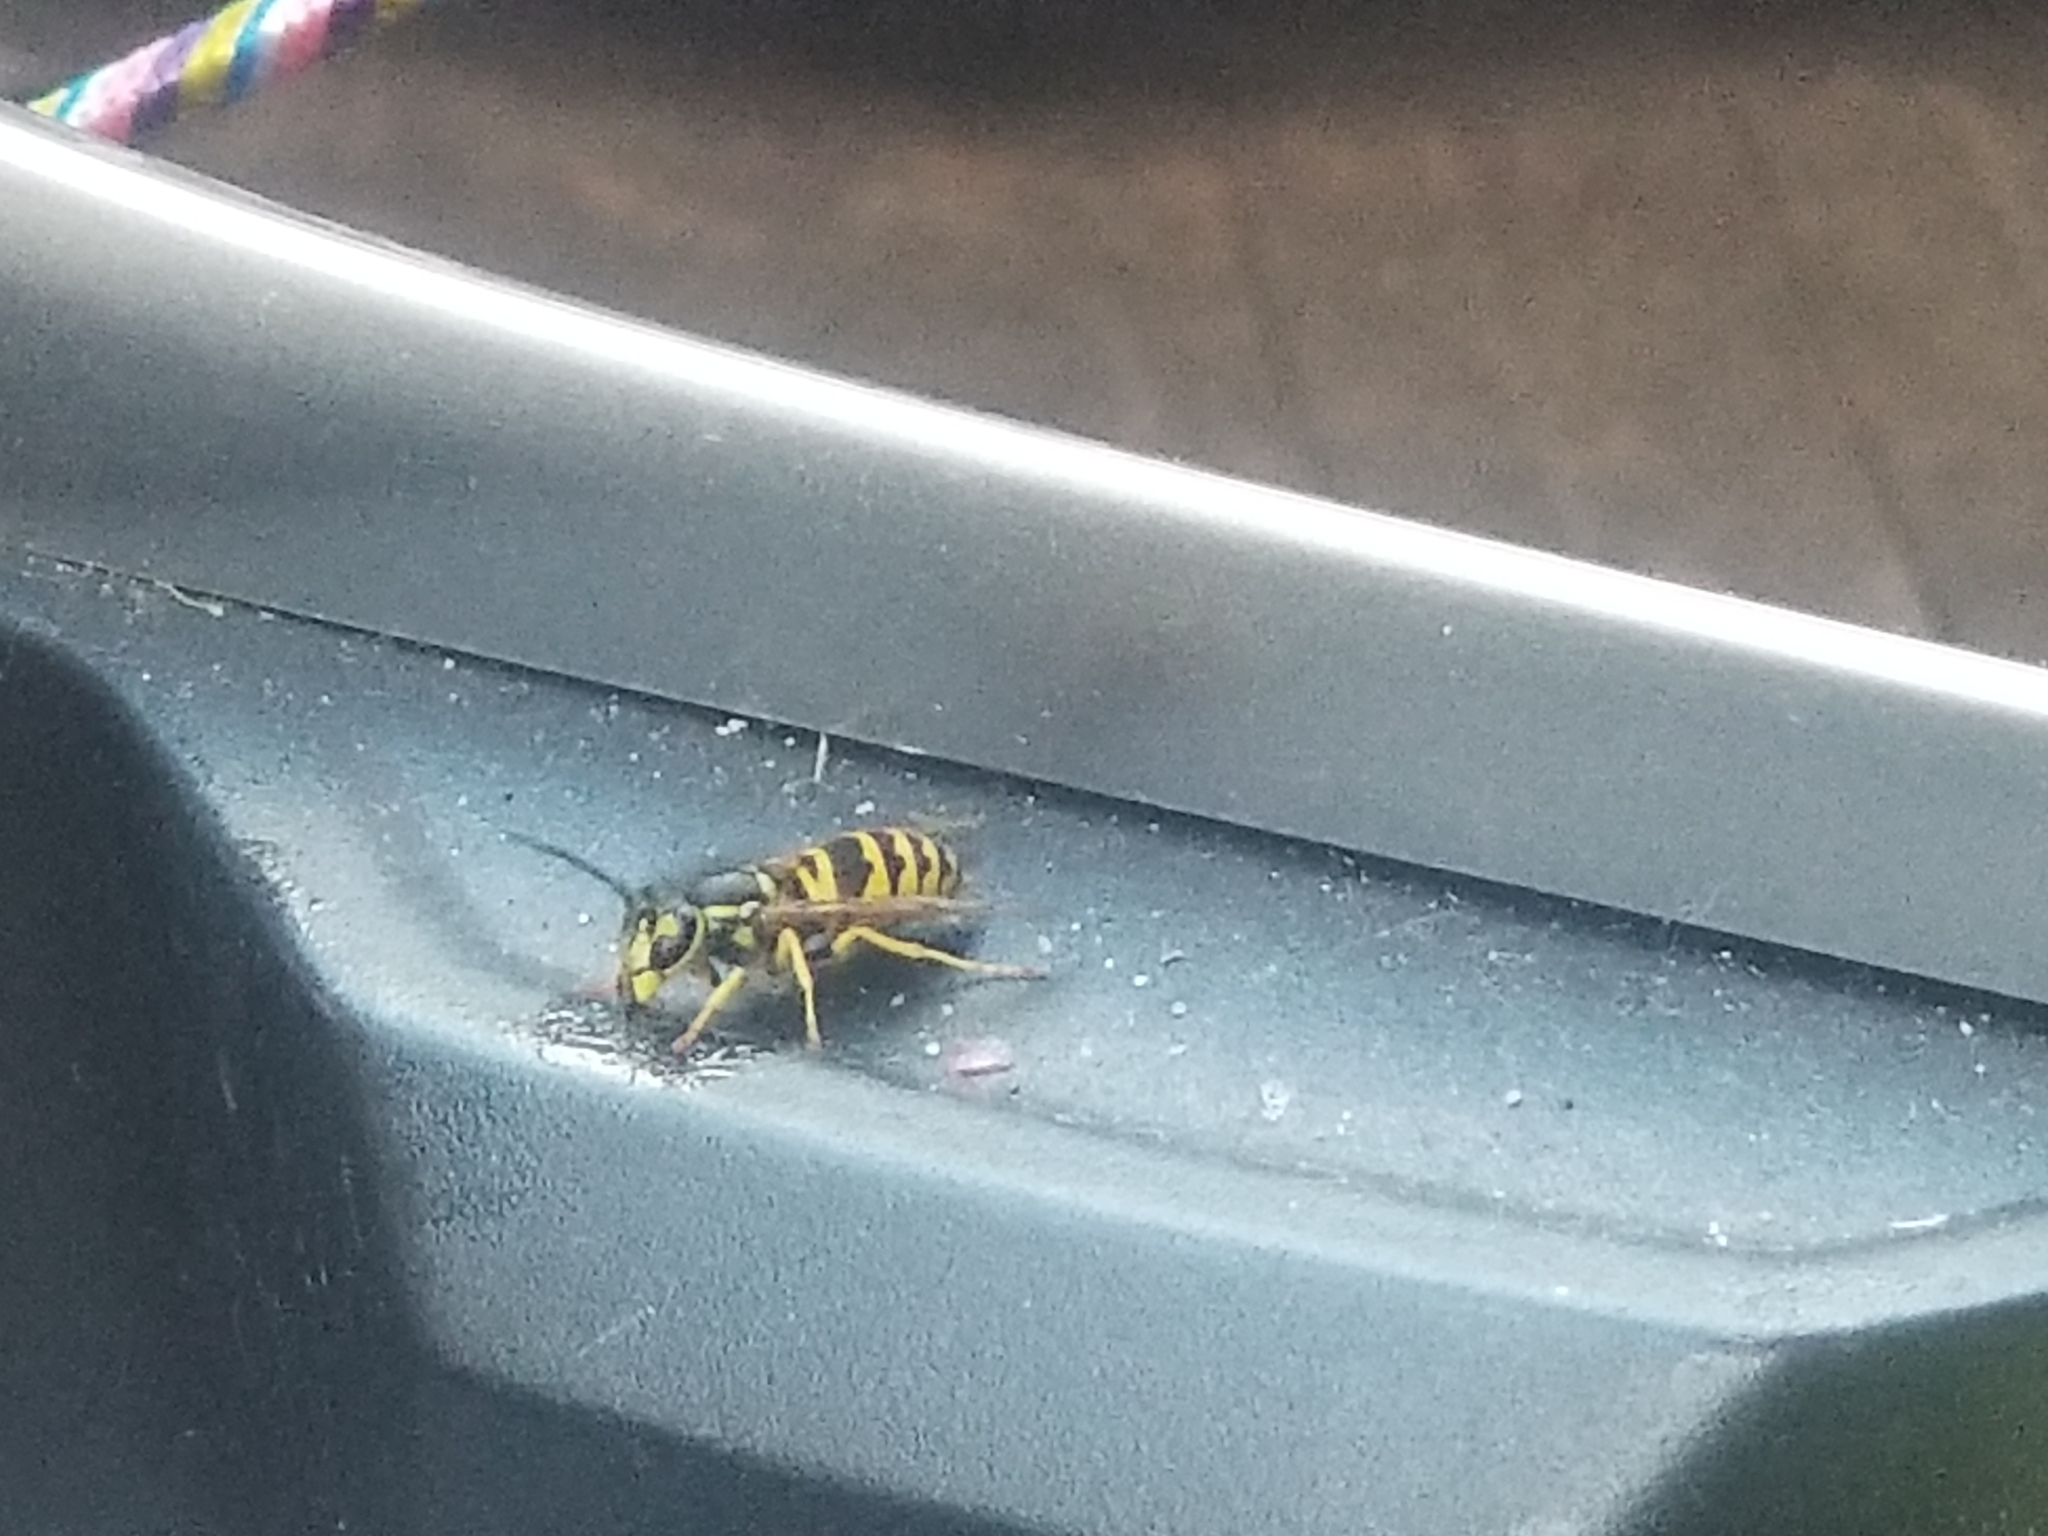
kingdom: Animalia
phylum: Arthropoda
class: Insecta
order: Hymenoptera
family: Vespidae
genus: Vespula
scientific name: Vespula maculifrons
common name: Eastern yellowjacket
